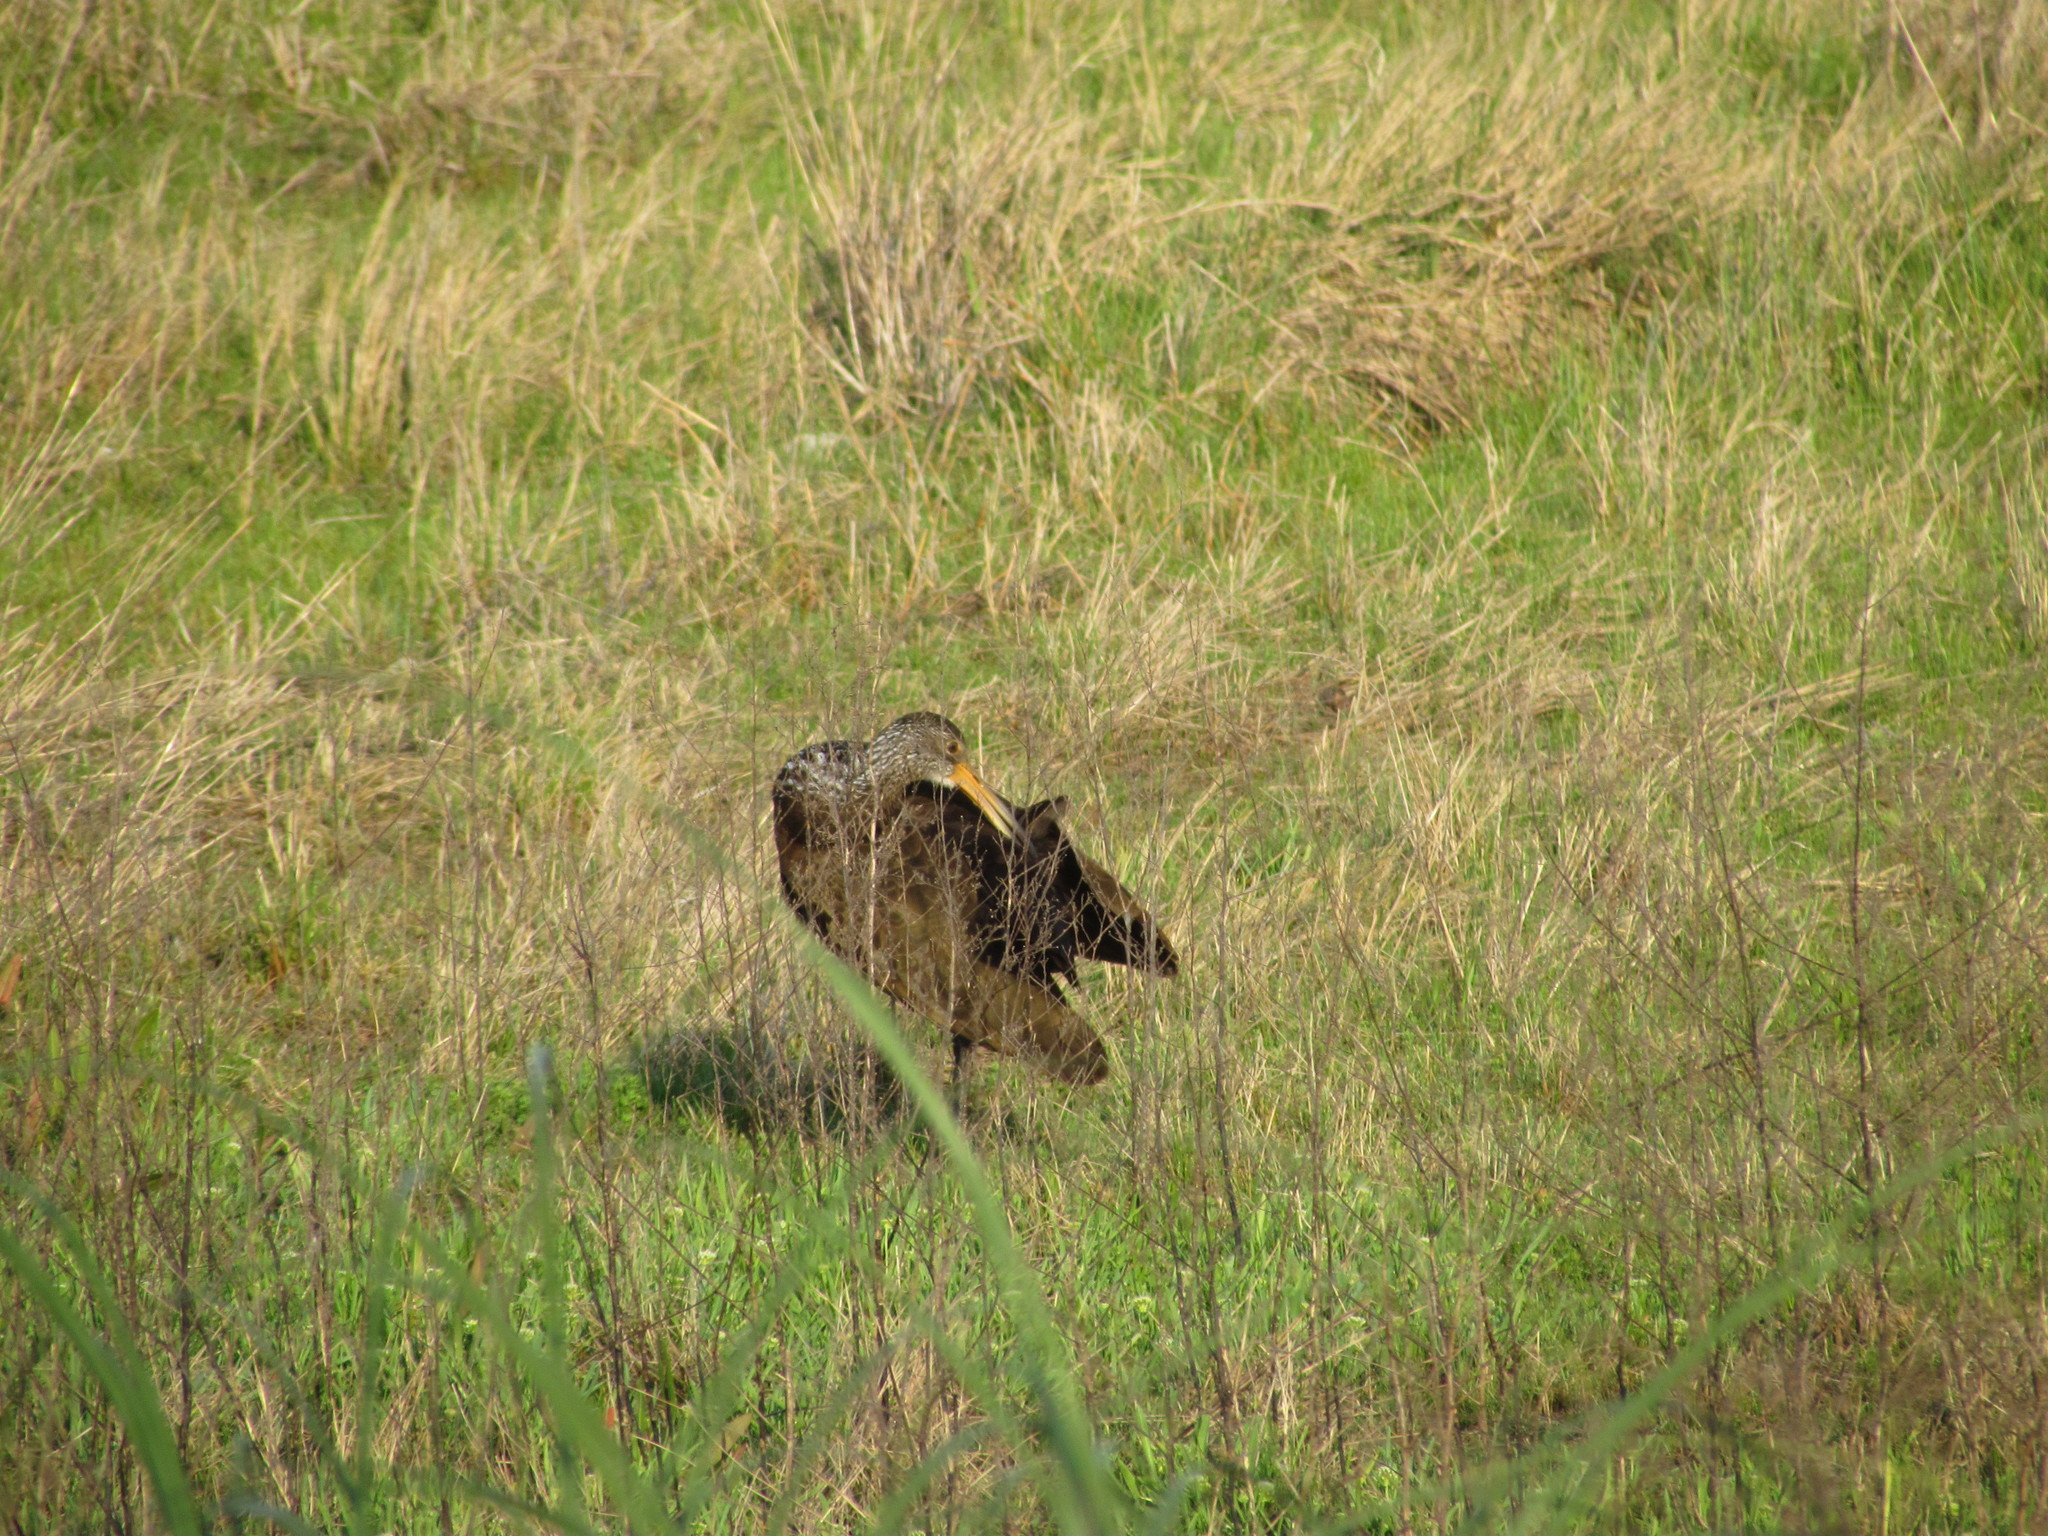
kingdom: Animalia
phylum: Chordata
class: Aves
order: Gruiformes
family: Aramidae
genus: Aramus
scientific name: Aramus guarauna
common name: Limpkin
